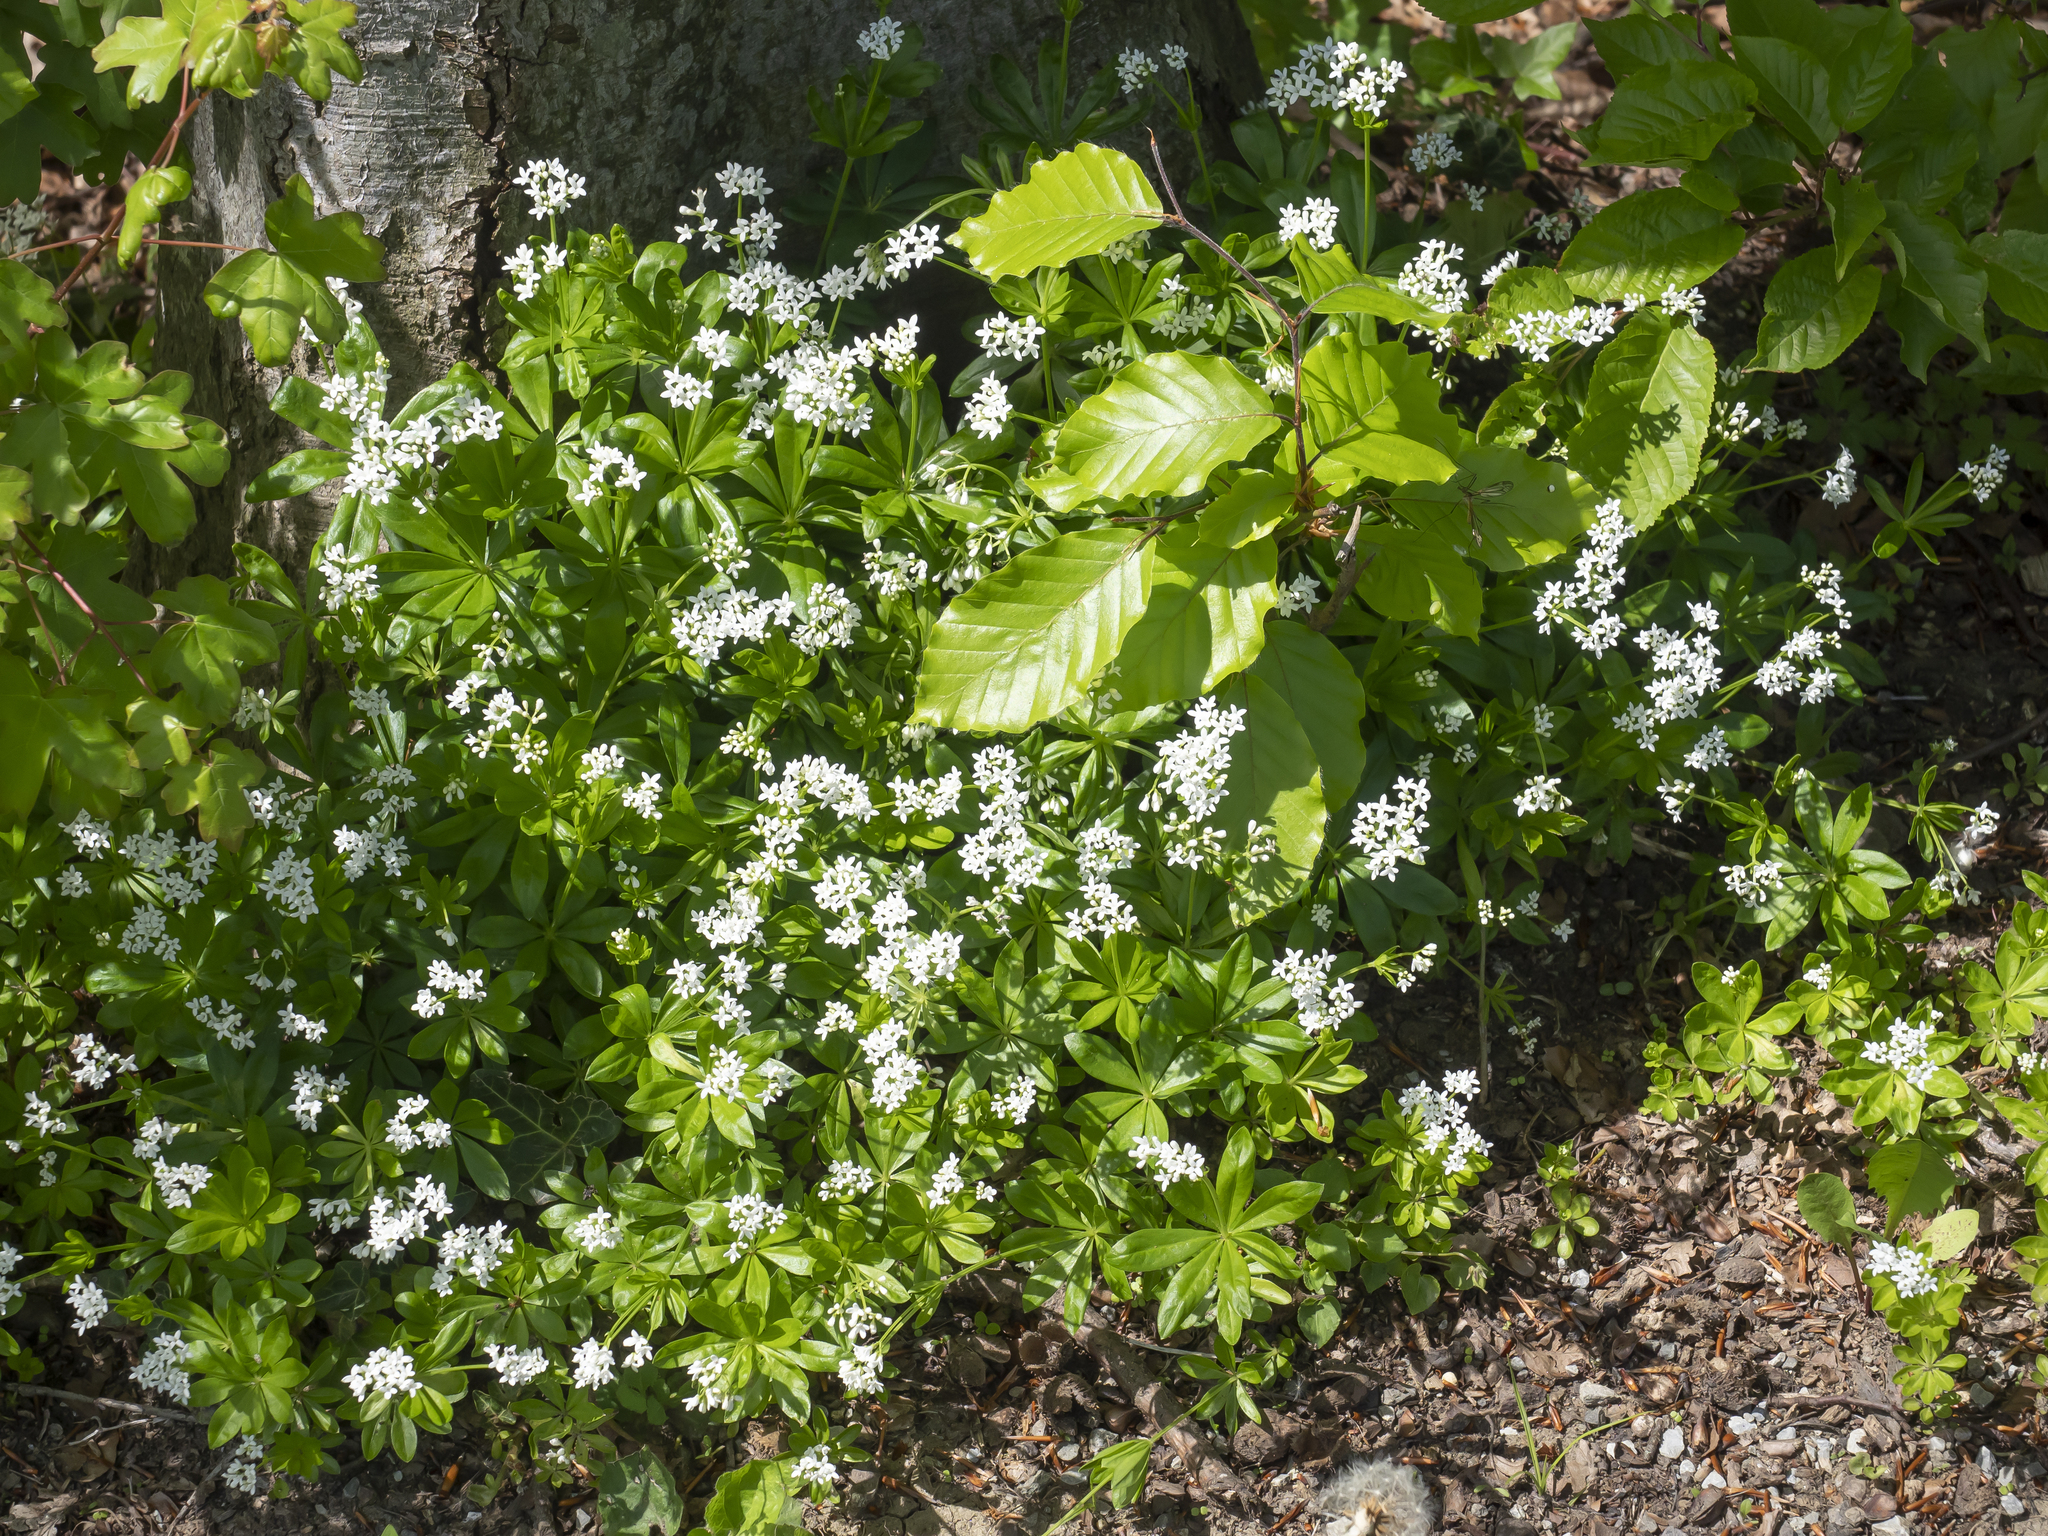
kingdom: Plantae
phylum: Tracheophyta
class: Magnoliopsida
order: Gentianales
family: Rubiaceae
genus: Galium
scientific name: Galium odoratum
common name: Sweet woodruff
